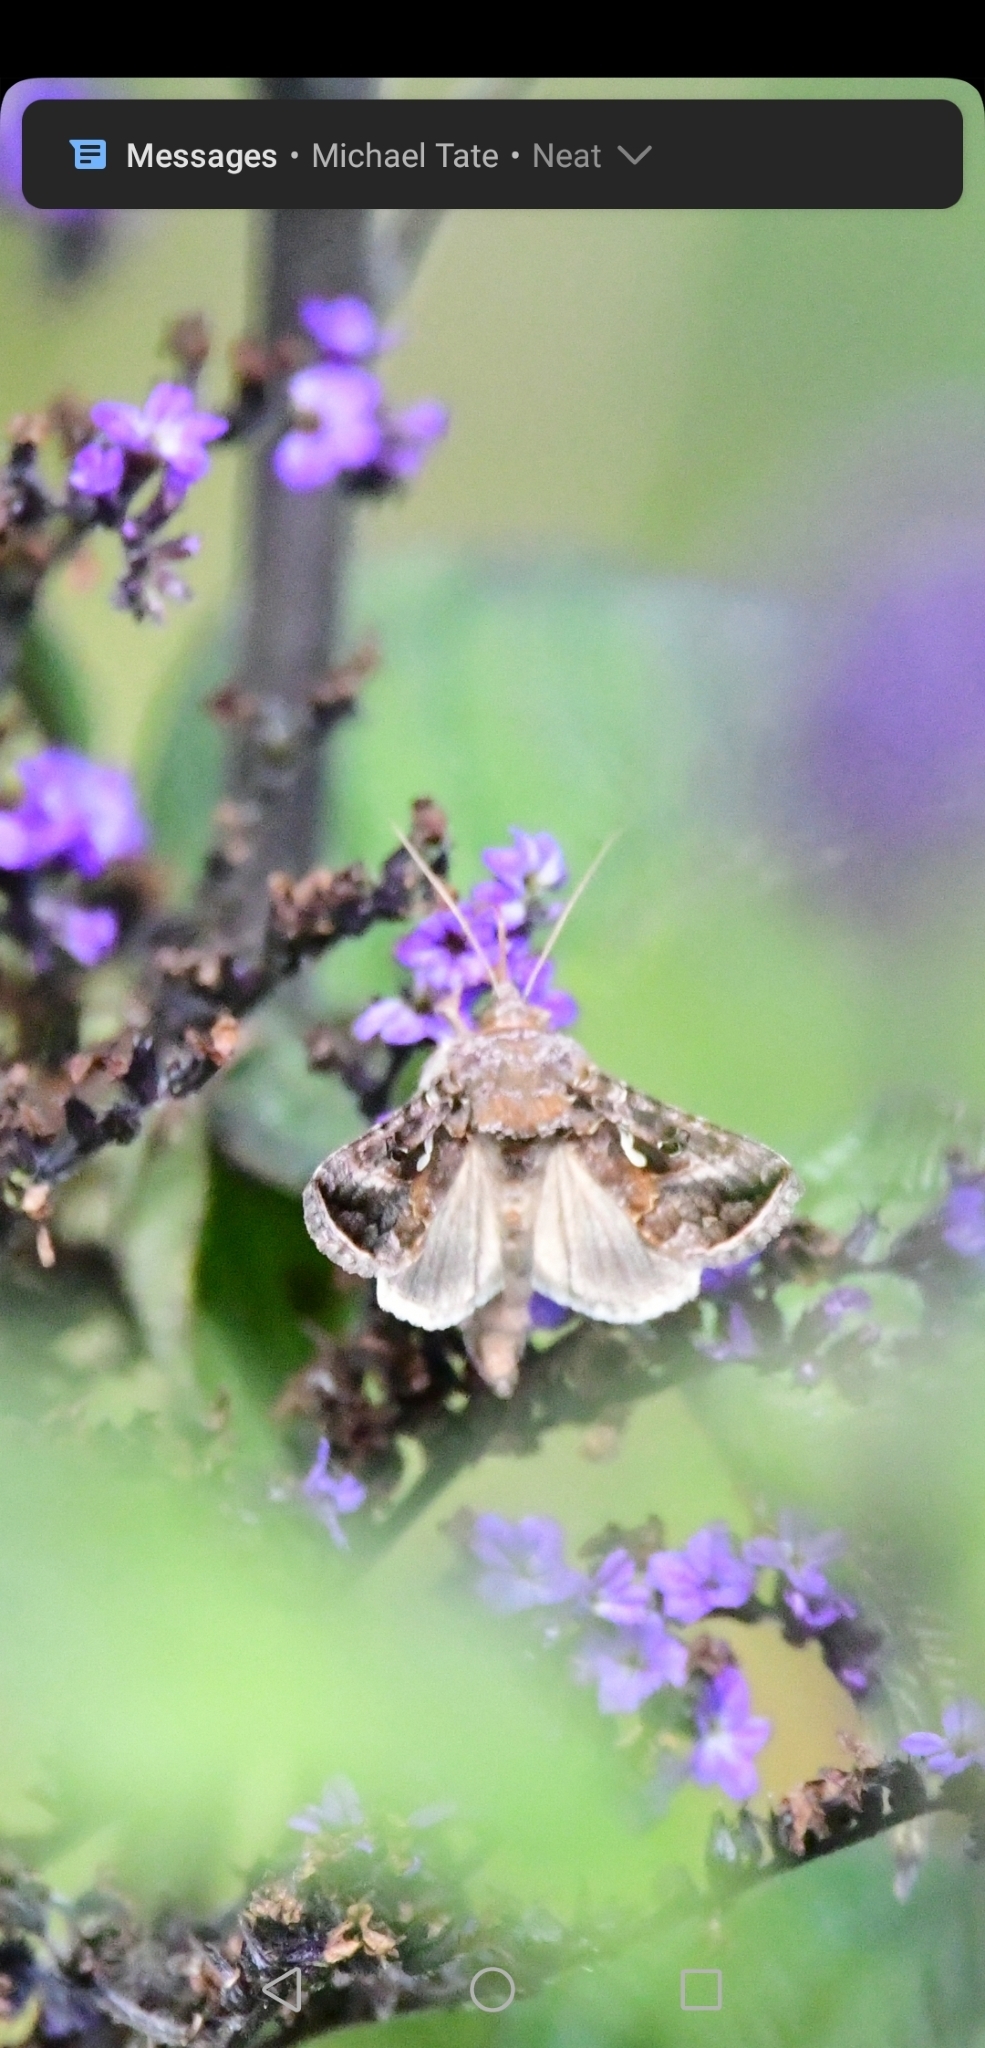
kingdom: Animalia
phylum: Arthropoda
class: Insecta
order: Lepidoptera
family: Noctuidae
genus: Autographa
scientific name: Autographa precationis
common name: Common looper moth
